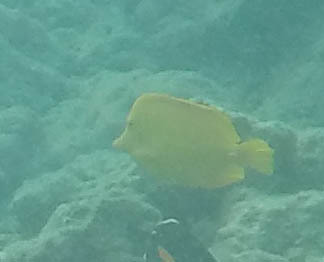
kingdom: Animalia
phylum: Chordata
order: Perciformes
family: Acanthuridae
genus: Zebrasoma
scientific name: Zebrasoma flavescens
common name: Yellow tang
